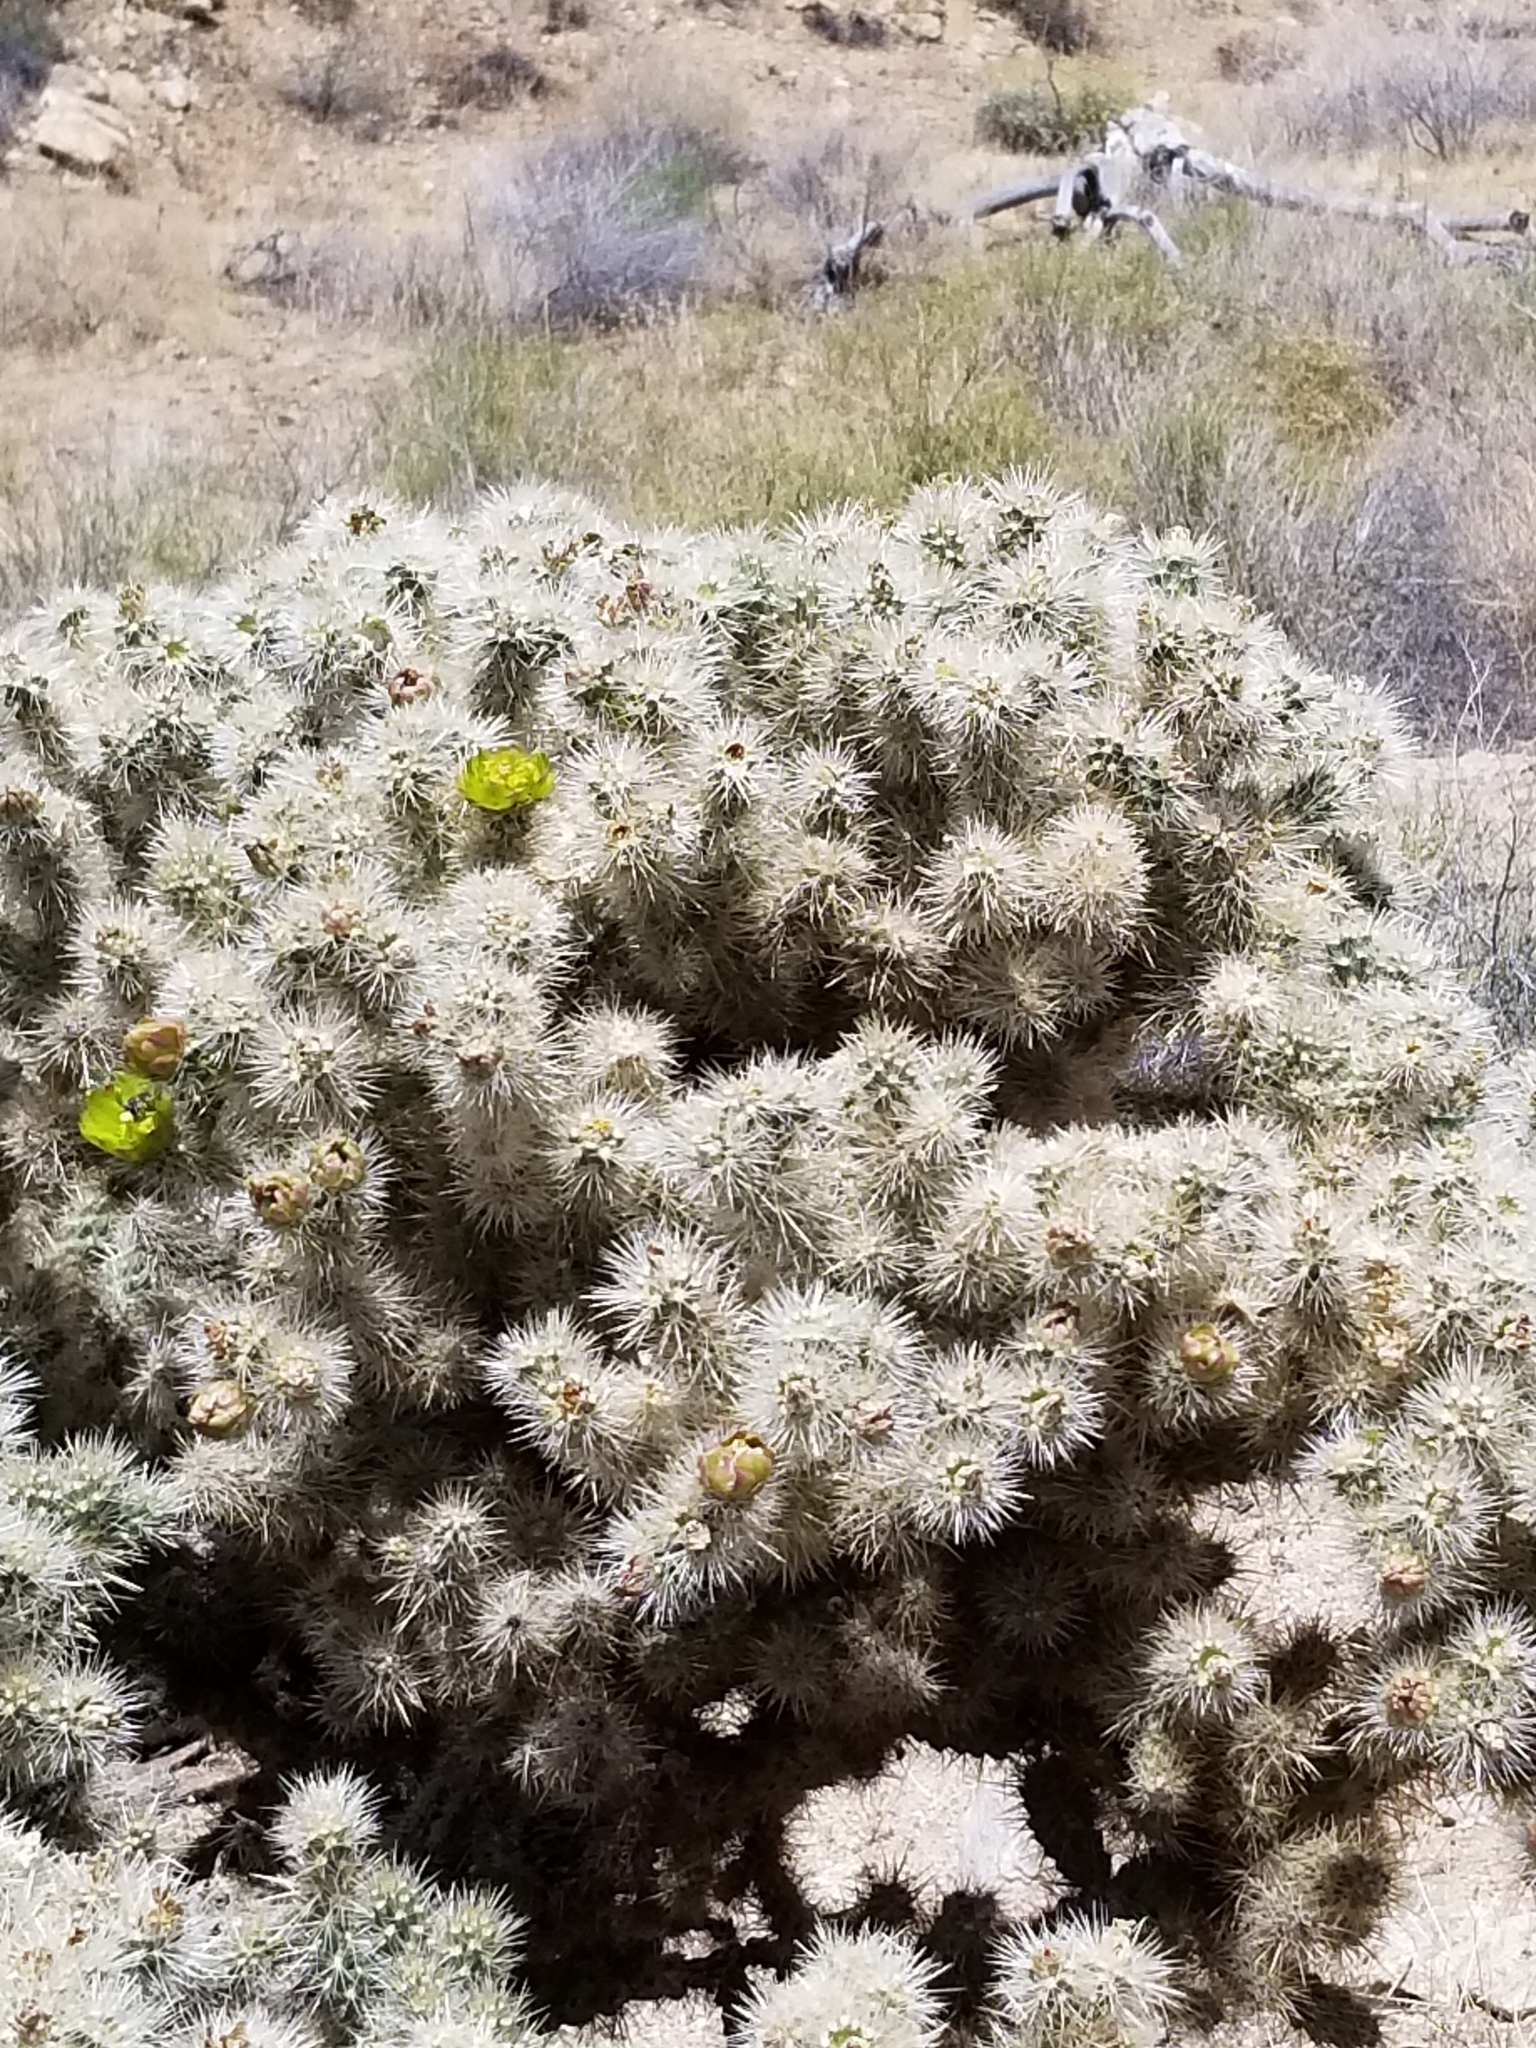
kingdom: Plantae
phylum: Tracheophyta
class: Magnoliopsida
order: Caryophyllales
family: Cactaceae
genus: Cylindropuntia
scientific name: Cylindropuntia echinocarpa
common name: Ground cholla
